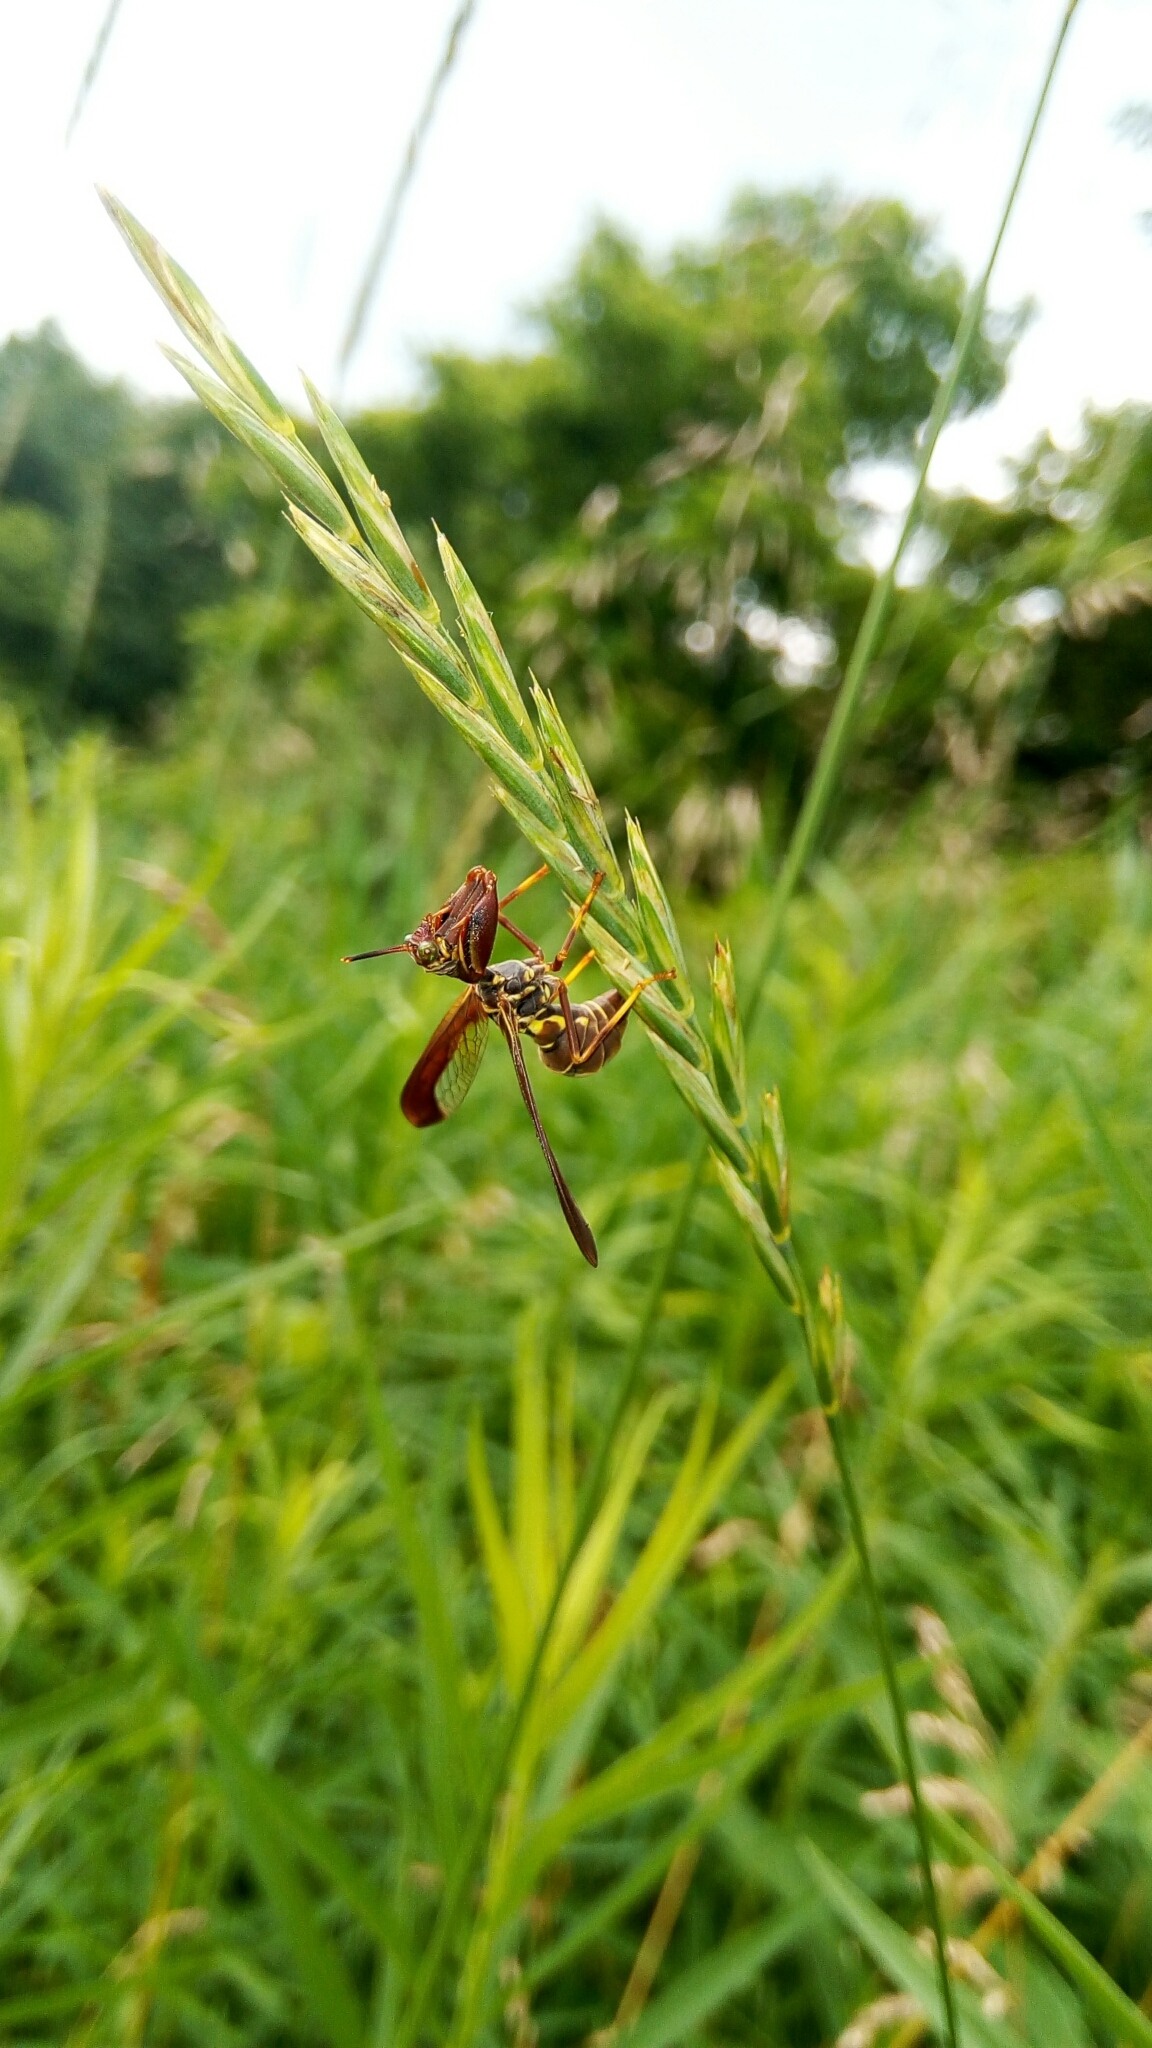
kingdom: Animalia
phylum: Arthropoda
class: Insecta
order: Neuroptera
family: Mantispidae
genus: Climaciella
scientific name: Climaciella brunnea
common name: Brown wasp mantidfly
